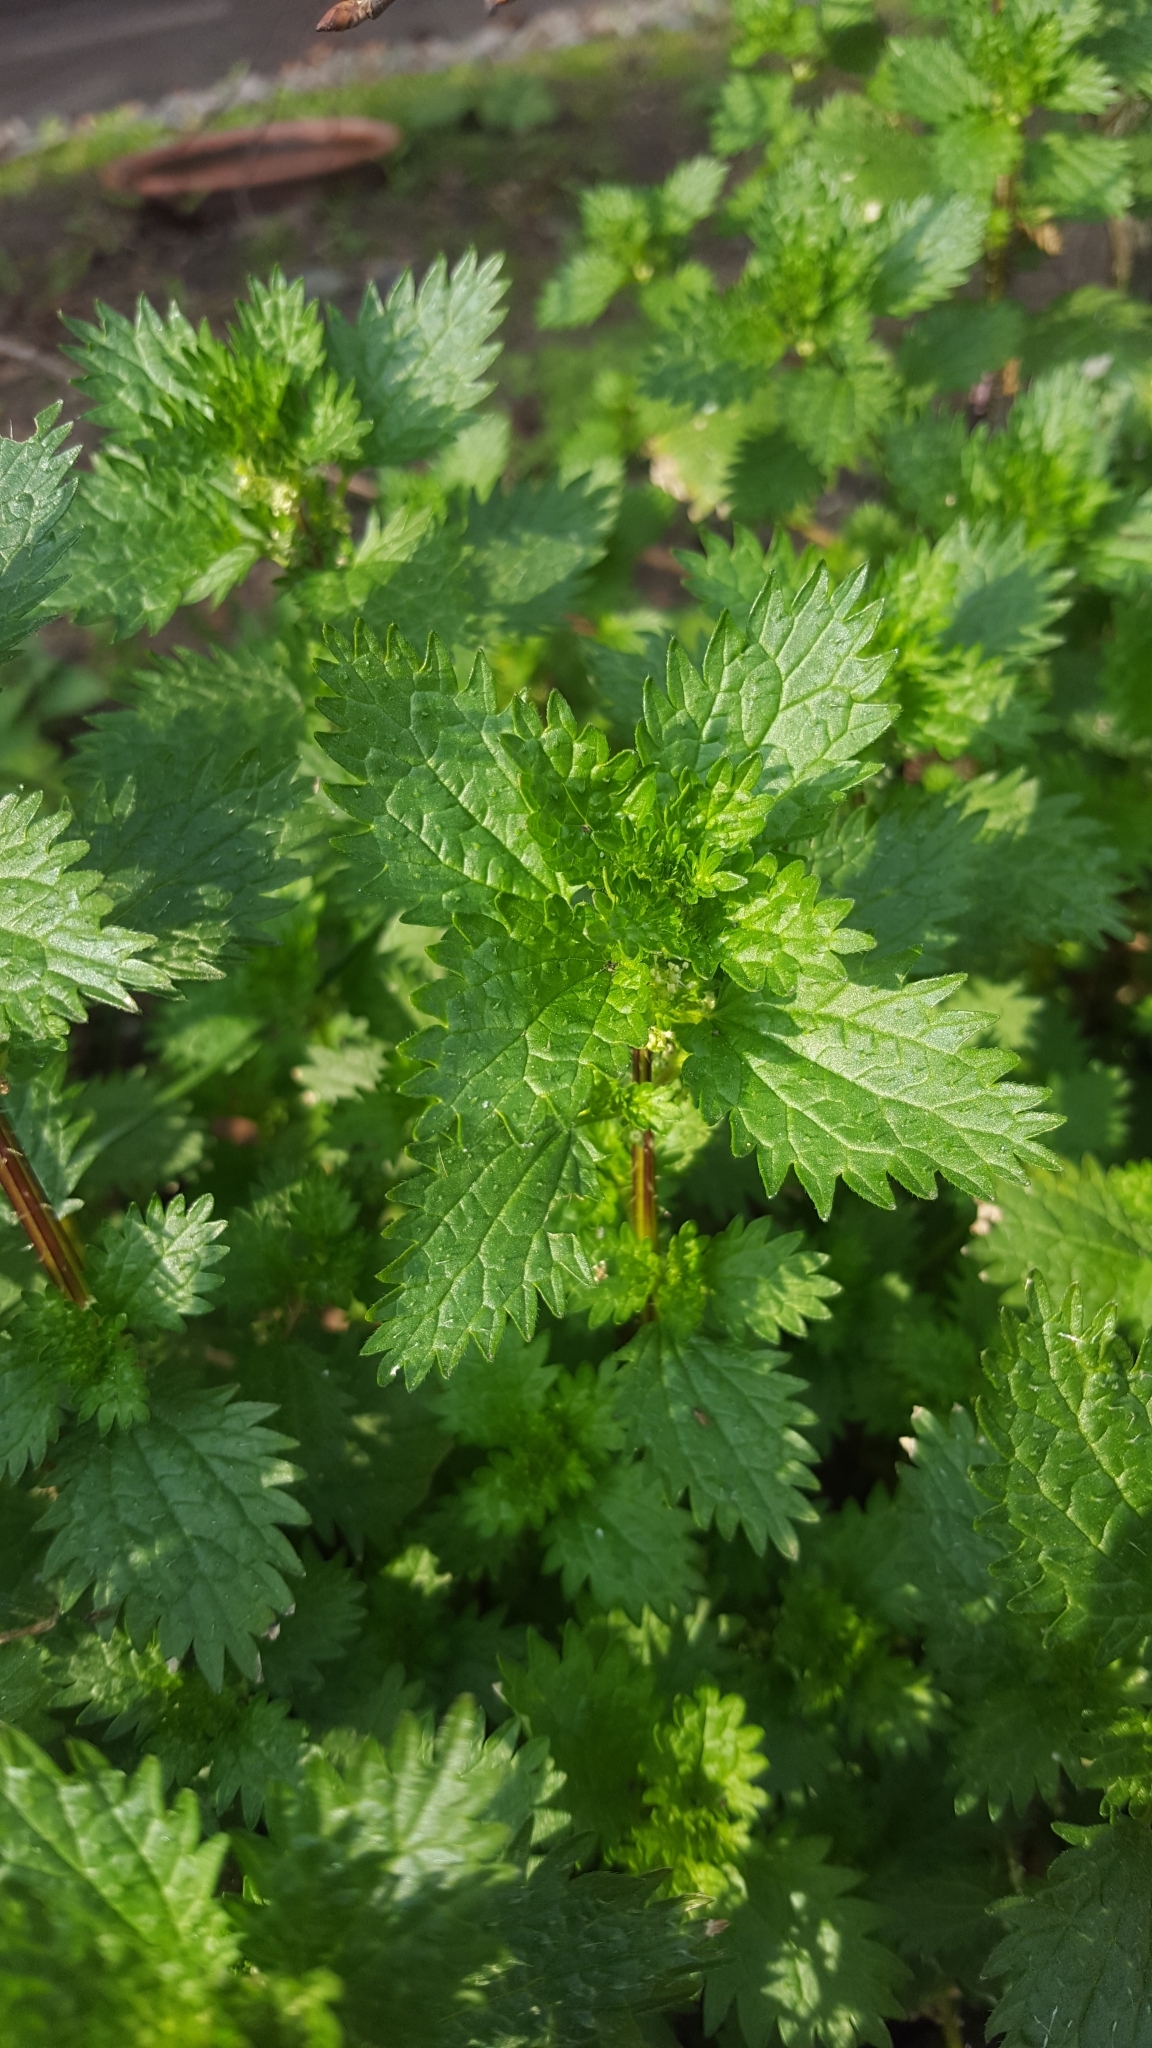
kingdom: Plantae
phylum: Tracheophyta
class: Magnoliopsida
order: Rosales
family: Urticaceae
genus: Urtica
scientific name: Urtica urens
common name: Dwarf nettle
